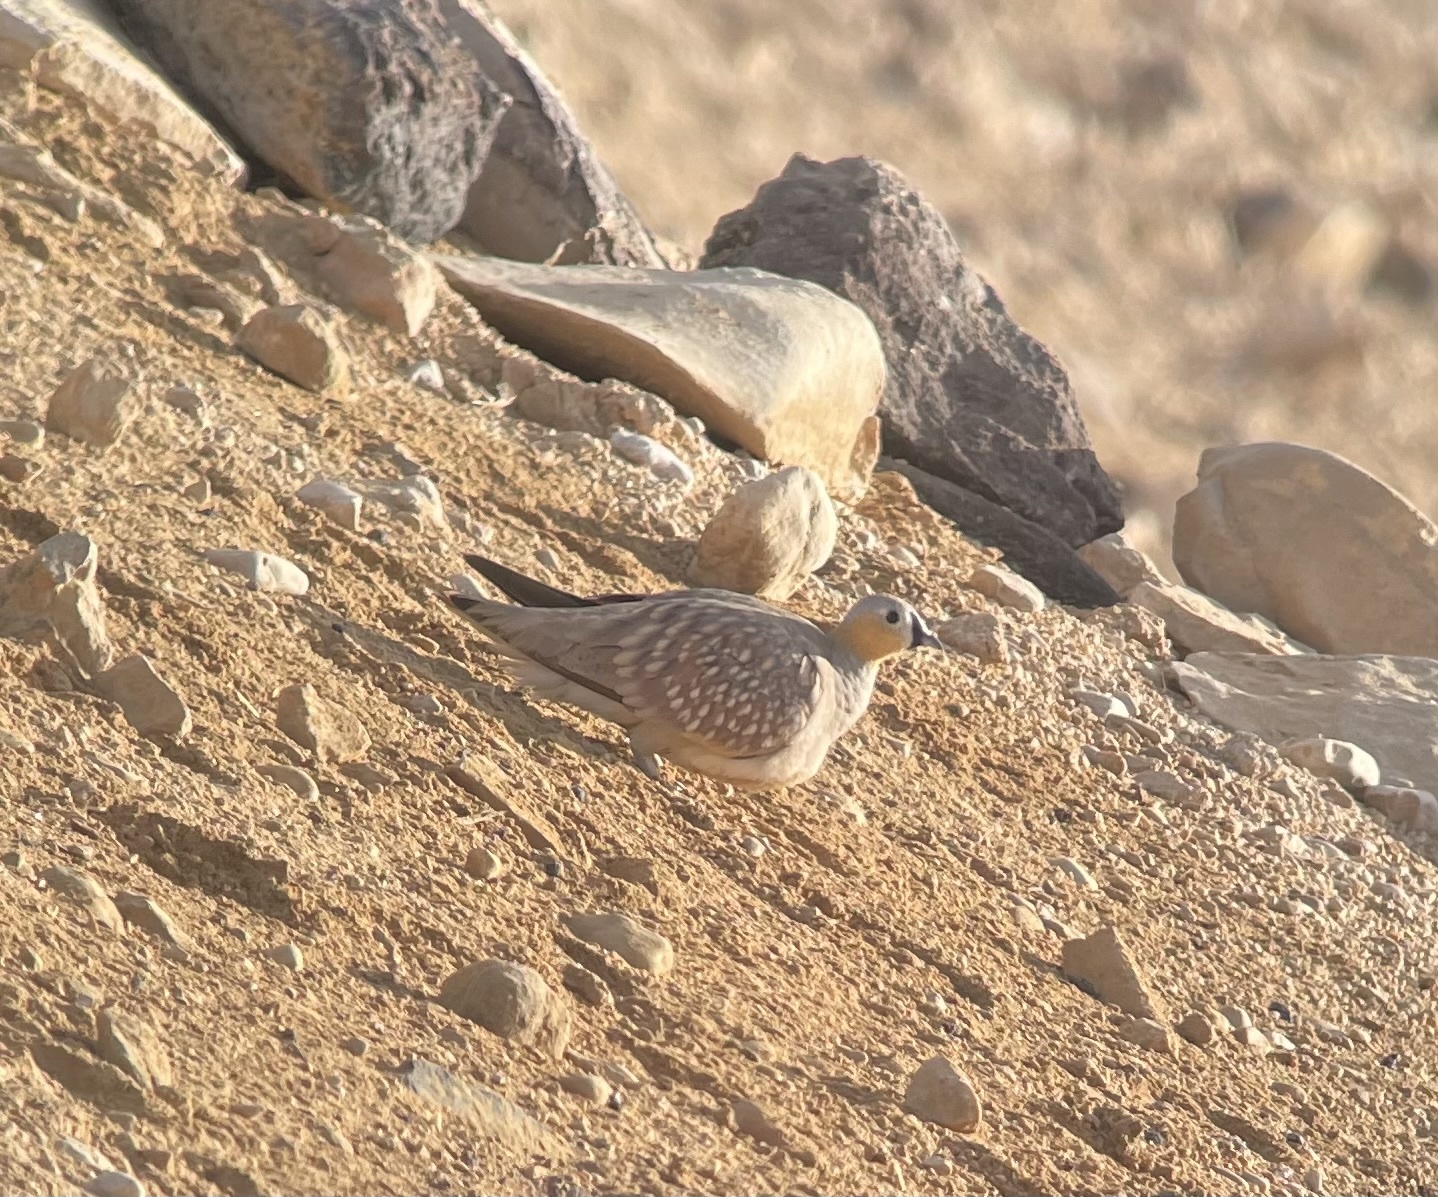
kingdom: Animalia
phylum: Chordata
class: Aves
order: Pteroclidiformes
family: Pteroclididae
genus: Pterocles
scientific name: Pterocles coronatus
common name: Crowned sandgrouse
